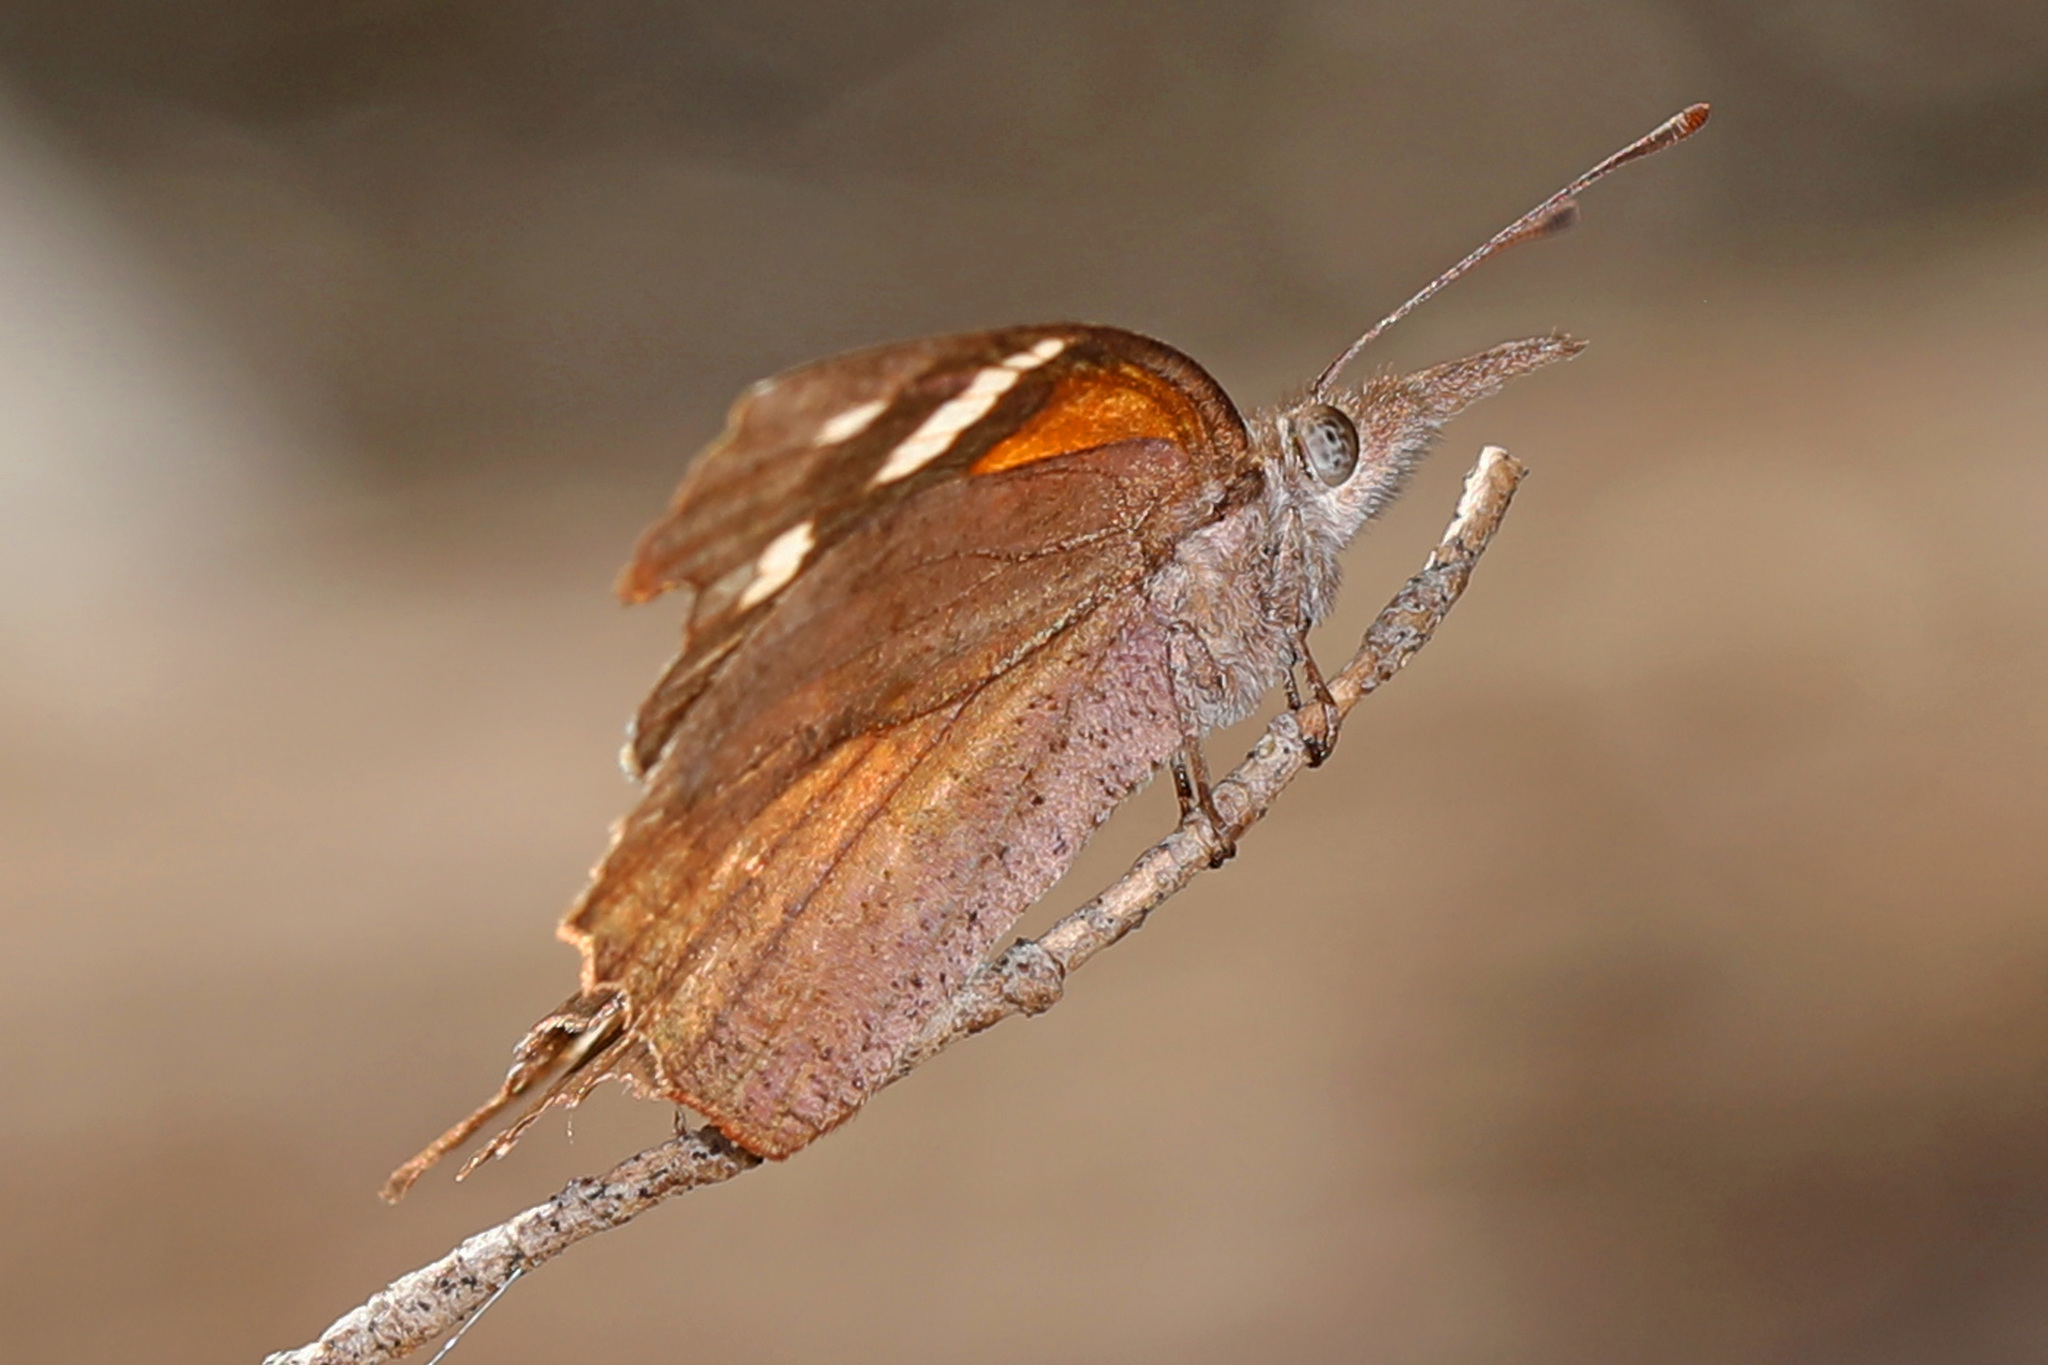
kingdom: Animalia
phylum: Arthropoda
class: Insecta
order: Lepidoptera
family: Nymphalidae
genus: Libytheana
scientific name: Libytheana carinenta
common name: American snout
